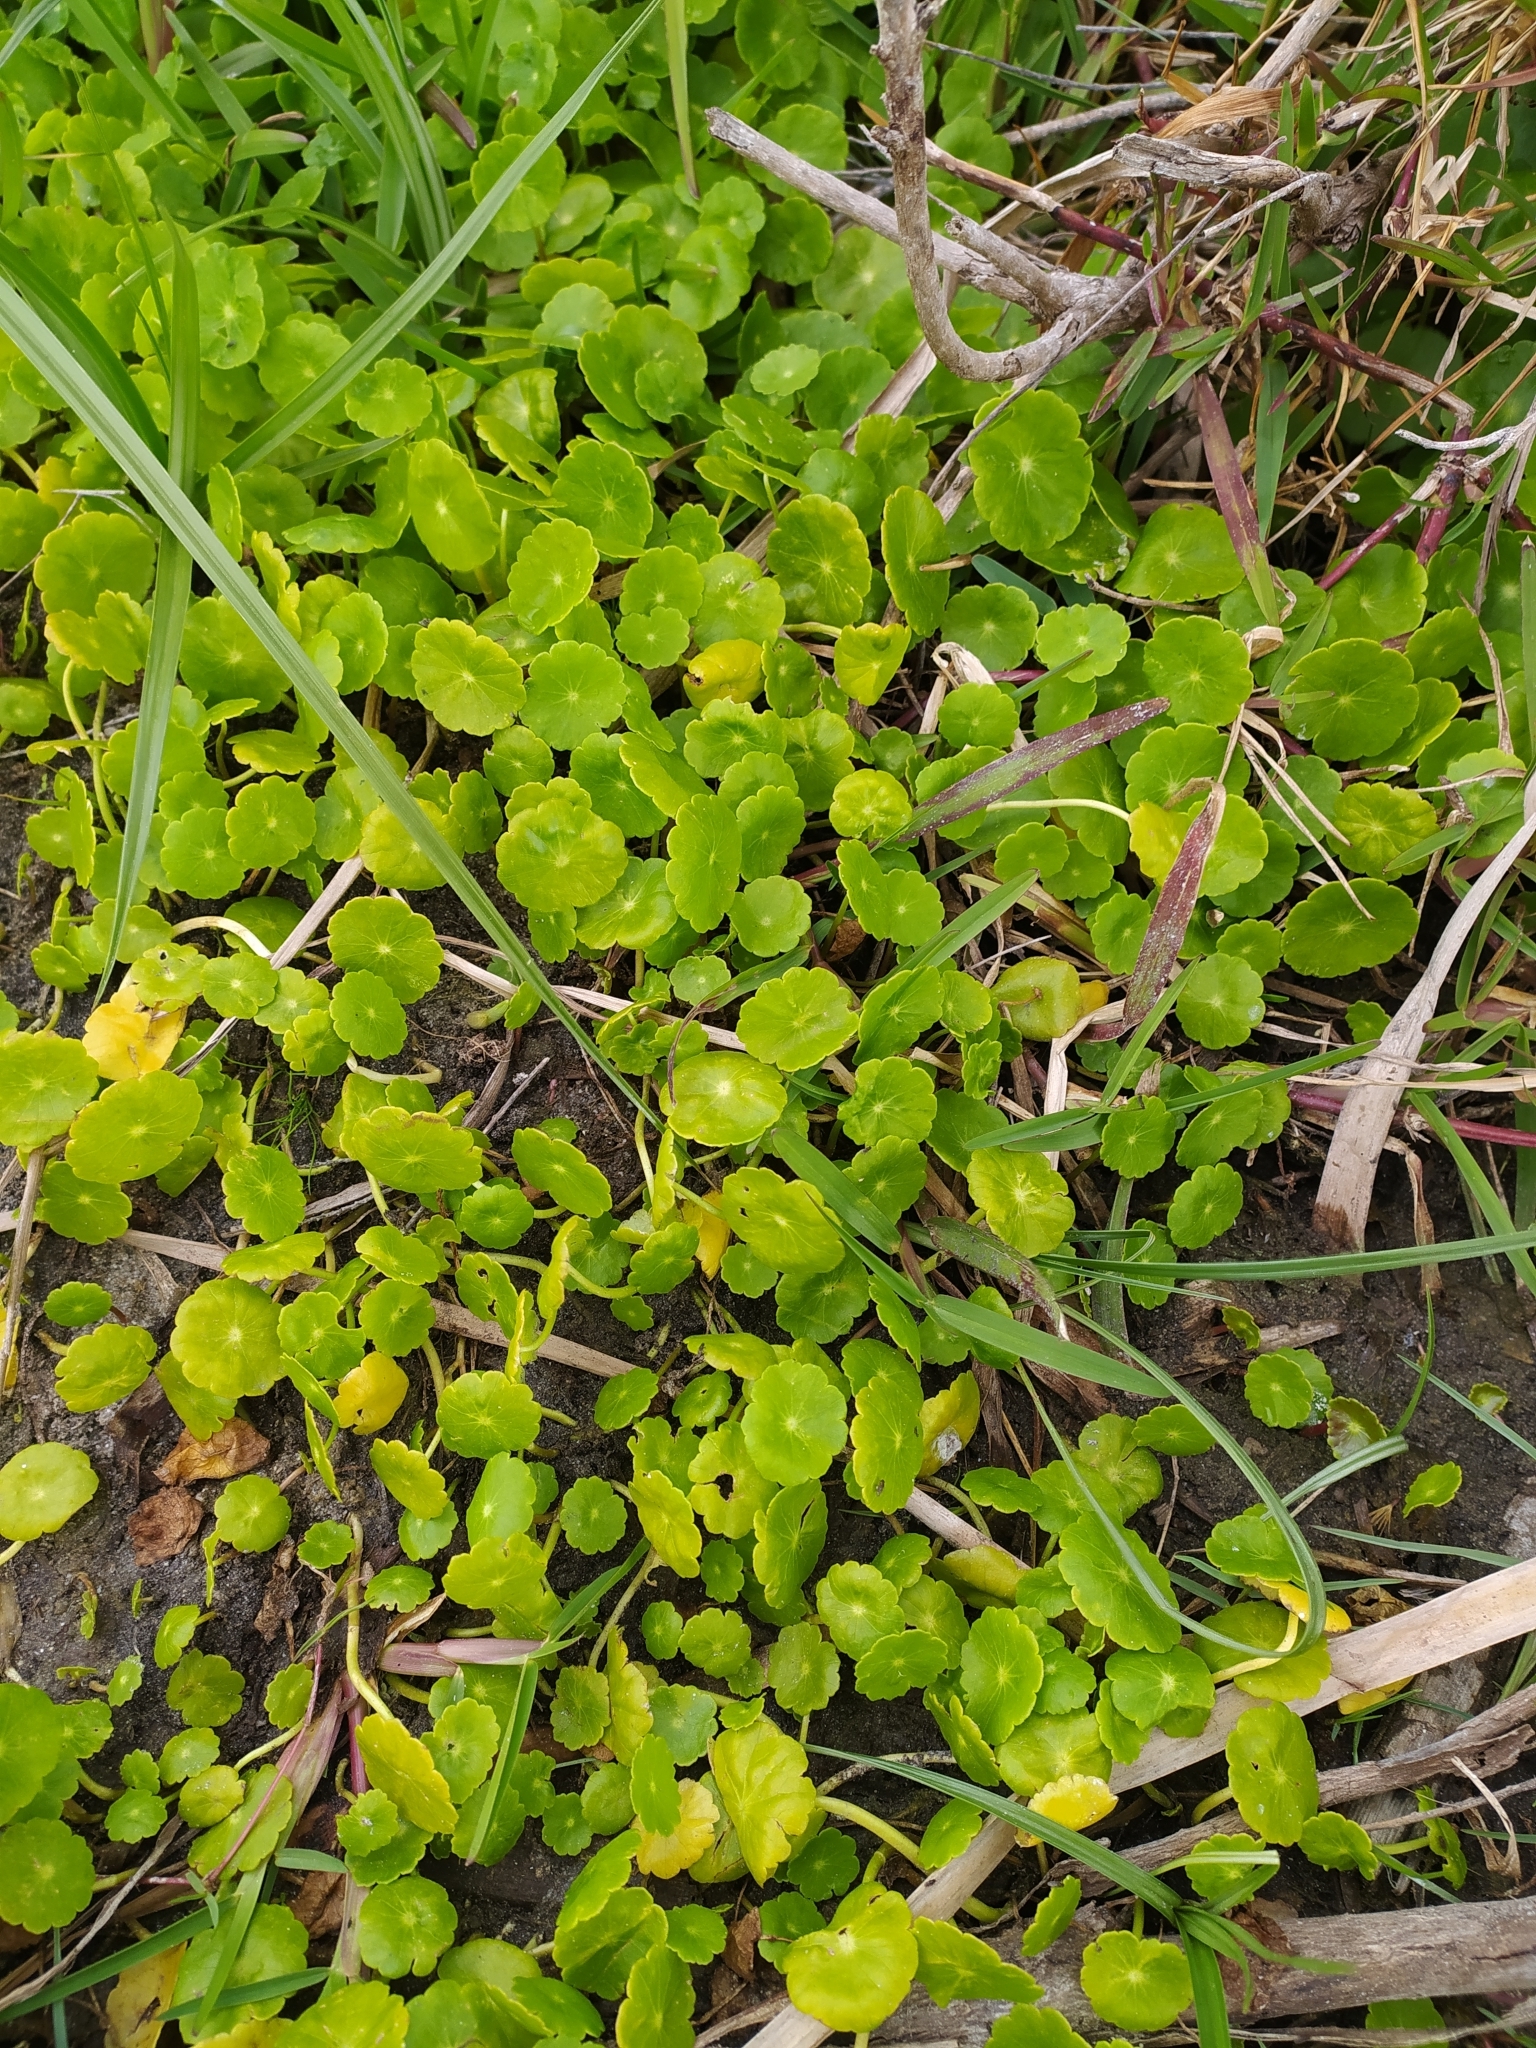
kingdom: Plantae
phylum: Tracheophyta
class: Magnoliopsida
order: Apiales
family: Araliaceae
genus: Hydrocotyle
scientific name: Hydrocotyle verticillata
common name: Whorled marshpennywort
